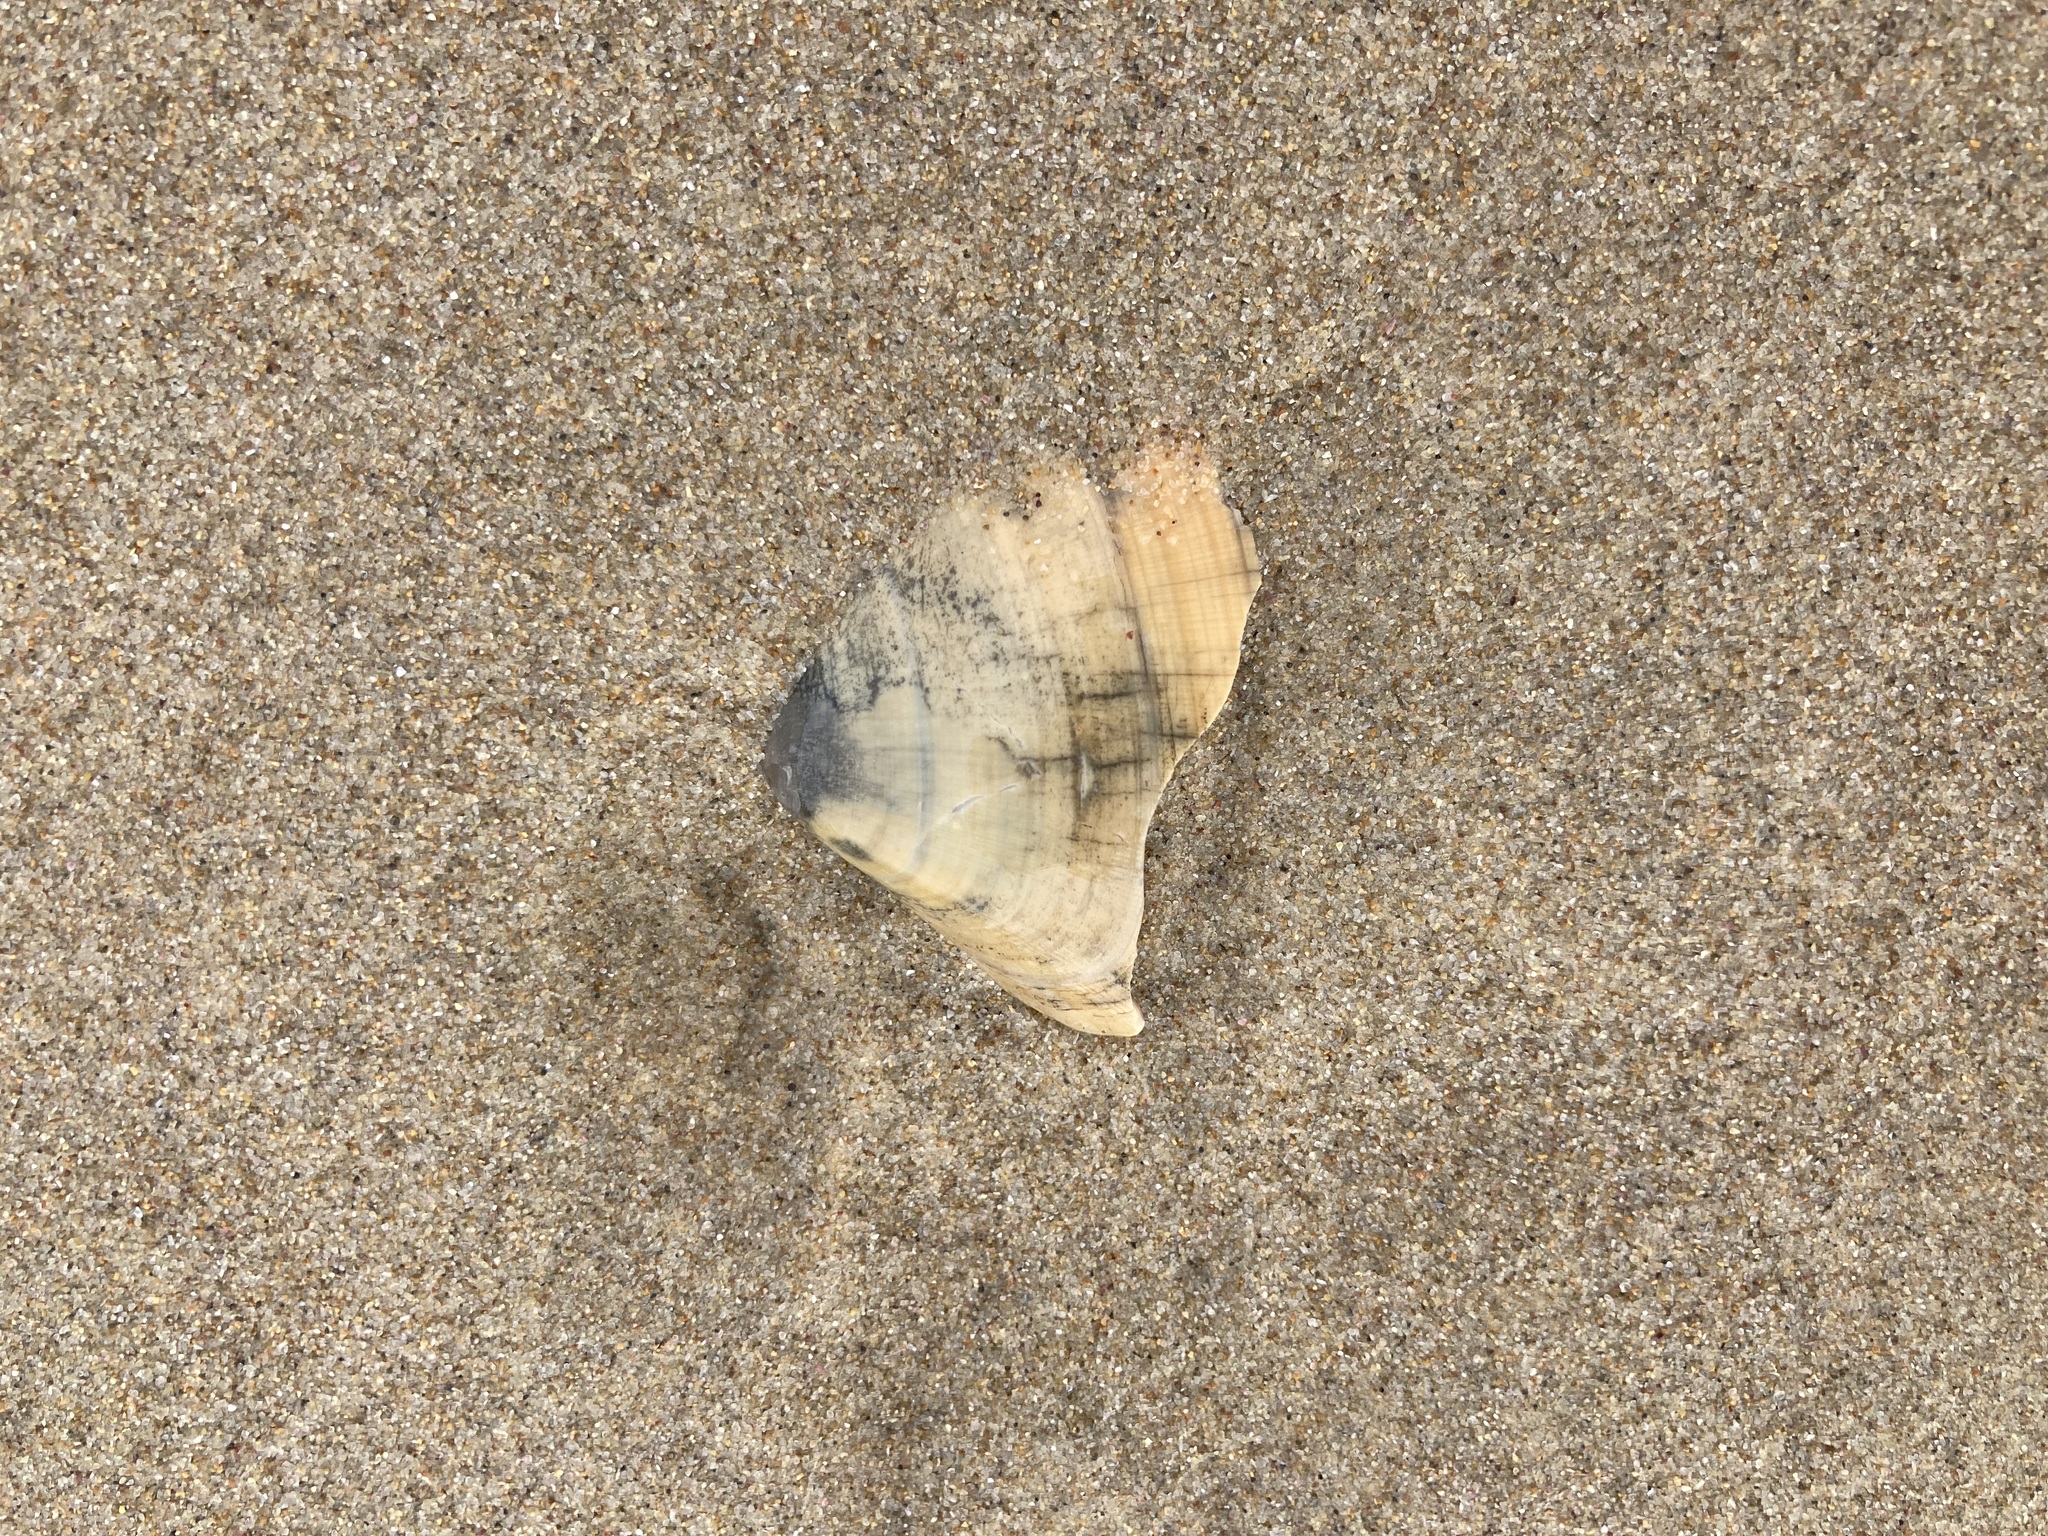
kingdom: Animalia
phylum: Mollusca
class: Bivalvia
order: Cardiida
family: Donacidae
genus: Latona
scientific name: Latona deltoides
